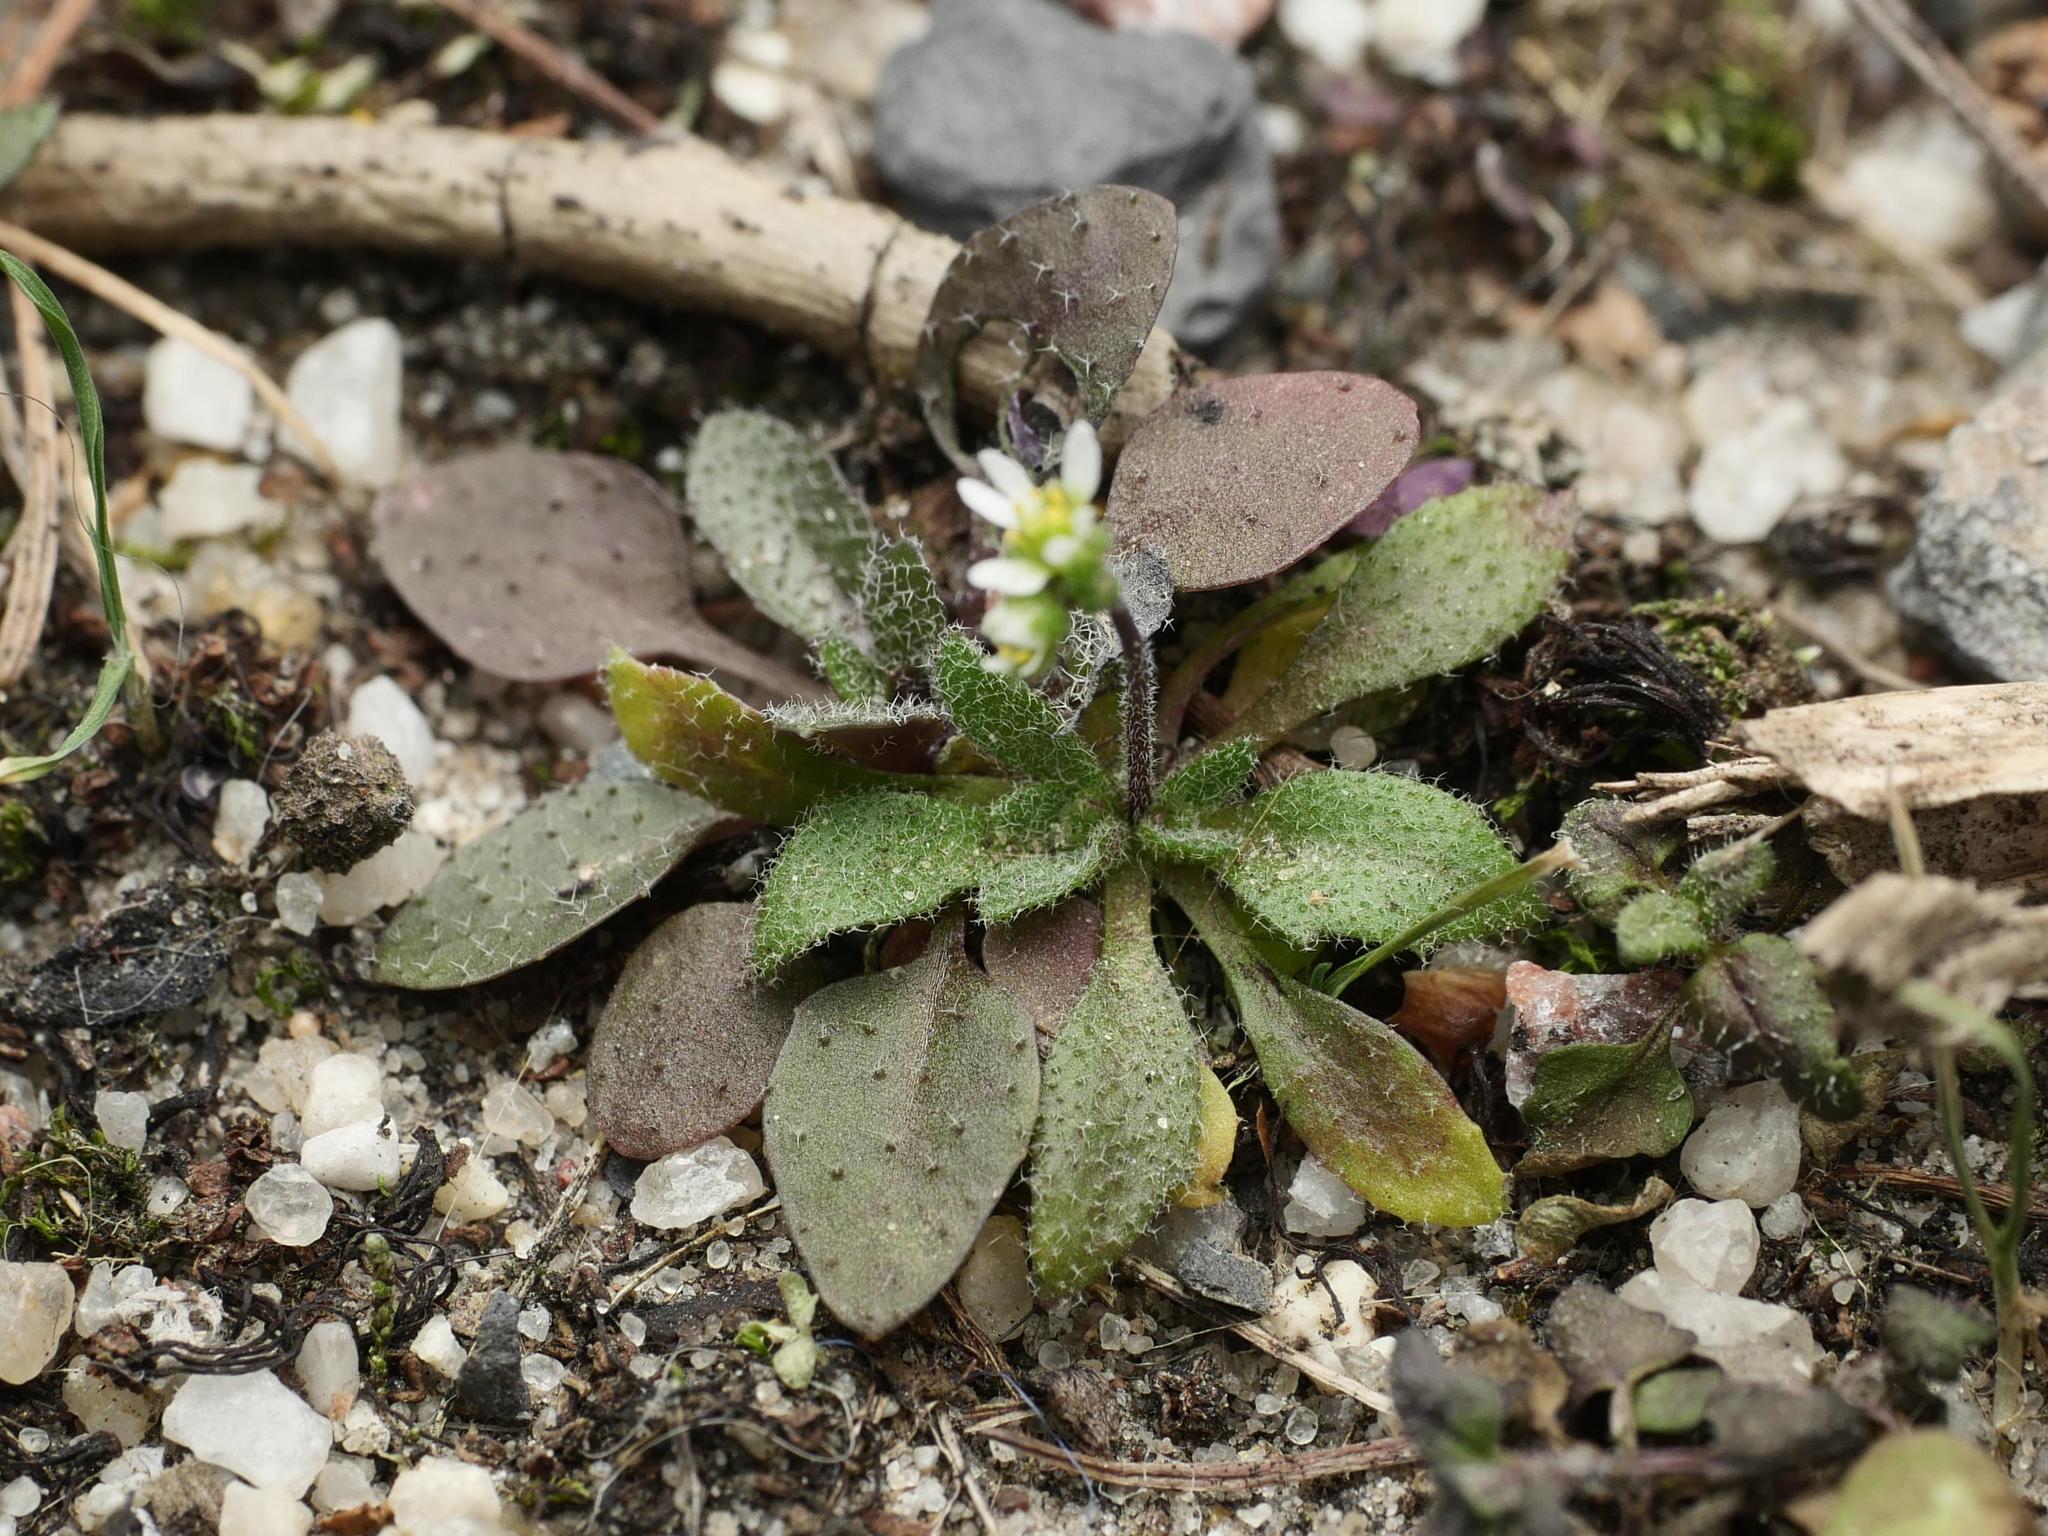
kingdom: Plantae
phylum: Tracheophyta
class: Magnoliopsida
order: Brassicales
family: Brassicaceae
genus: Draba
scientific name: Draba verna
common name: Spring draba
